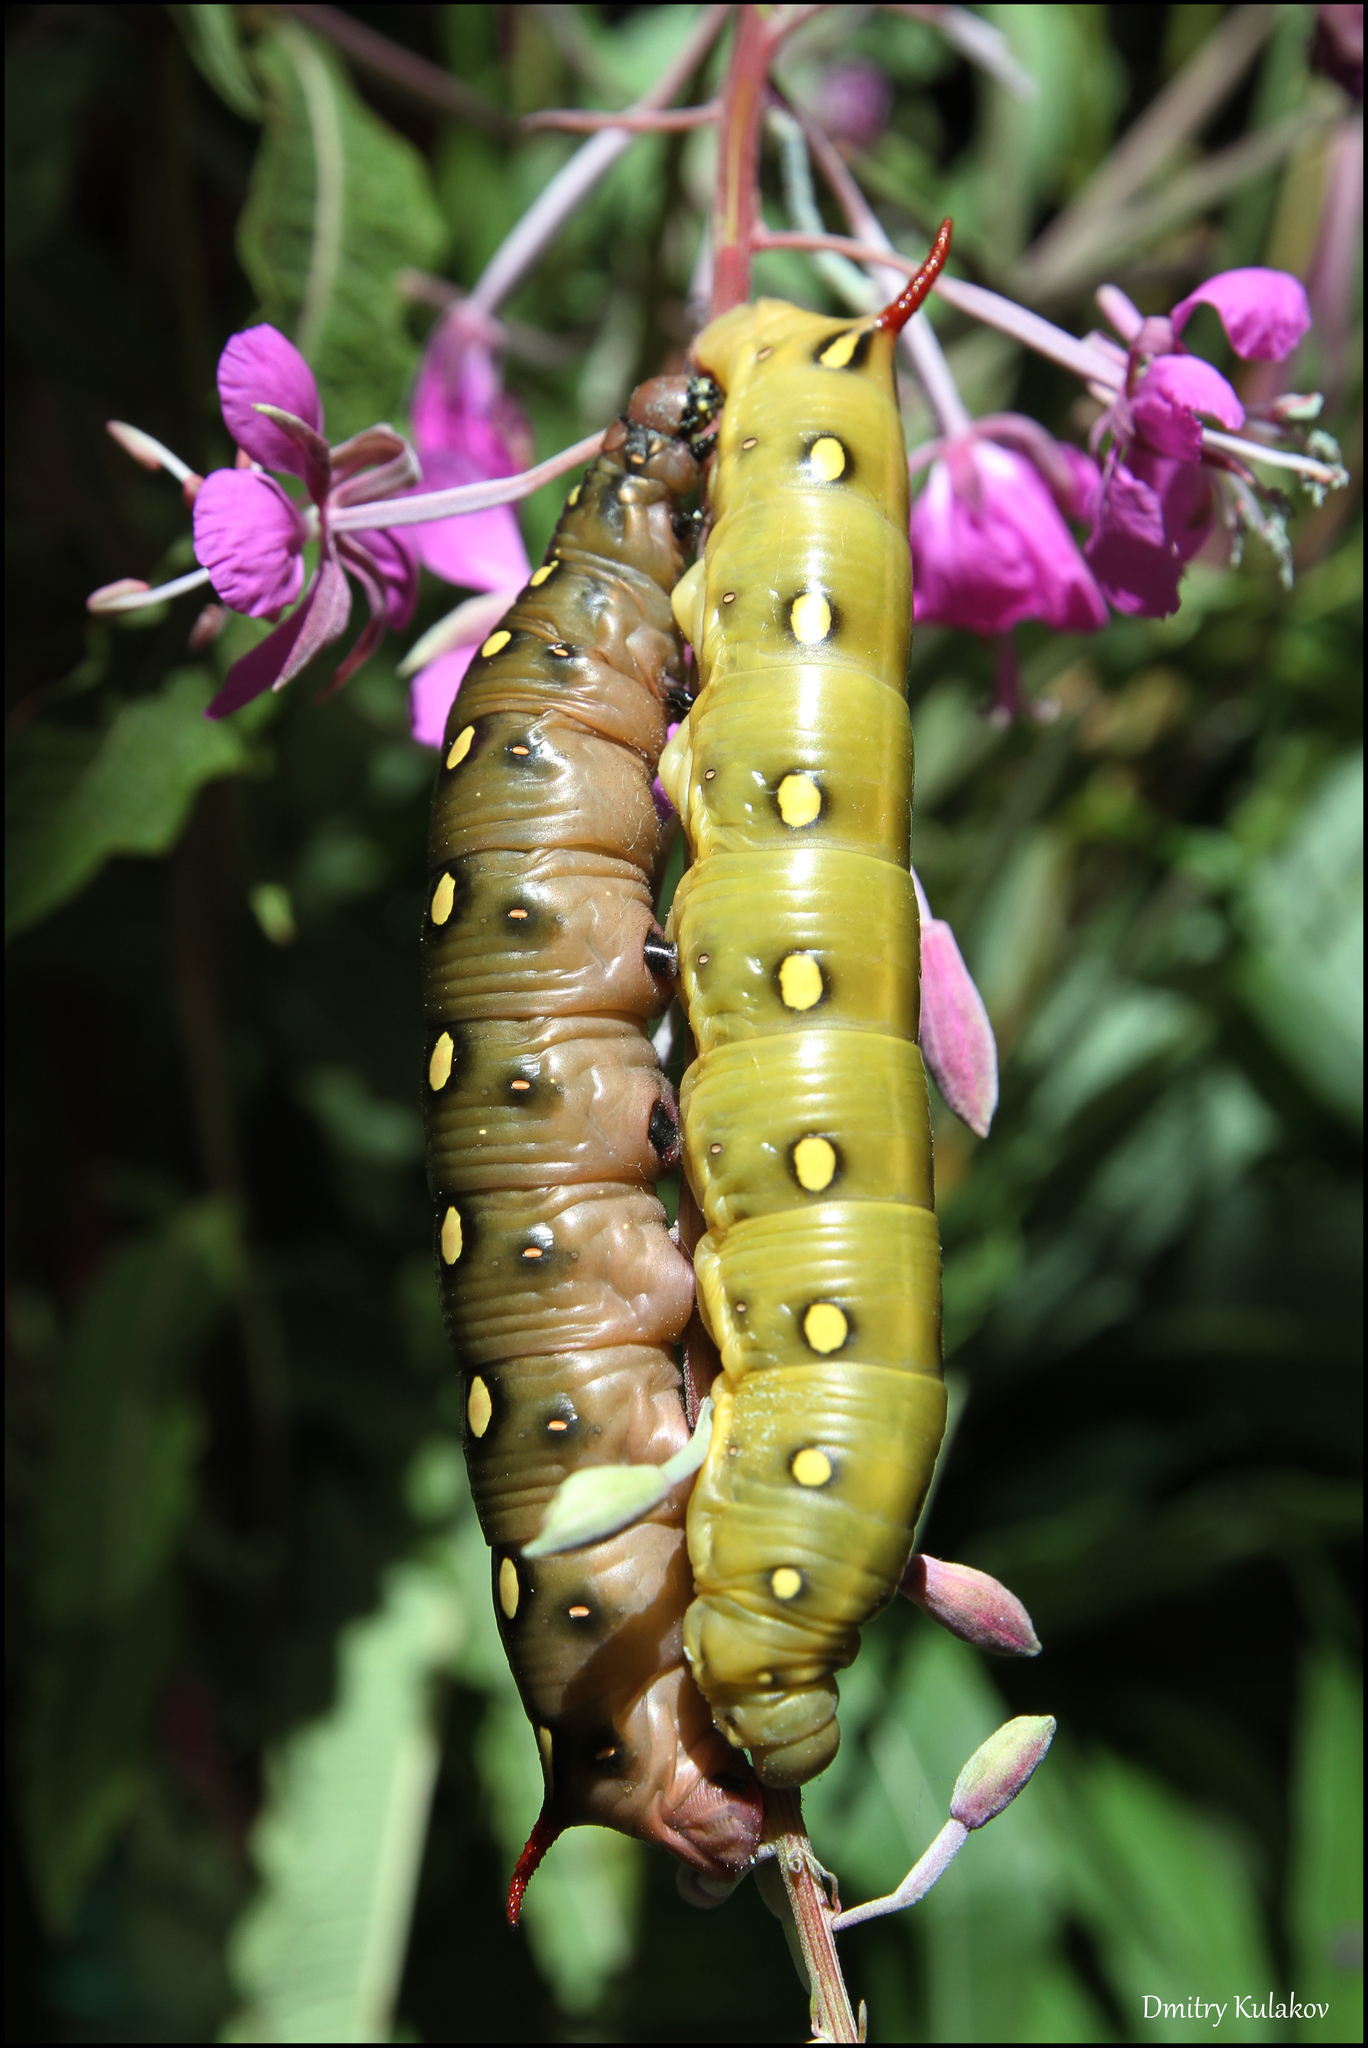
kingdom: Animalia
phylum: Arthropoda
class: Insecta
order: Lepidoptera
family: Sphingidae
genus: Hyles
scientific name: Hyles gallii
